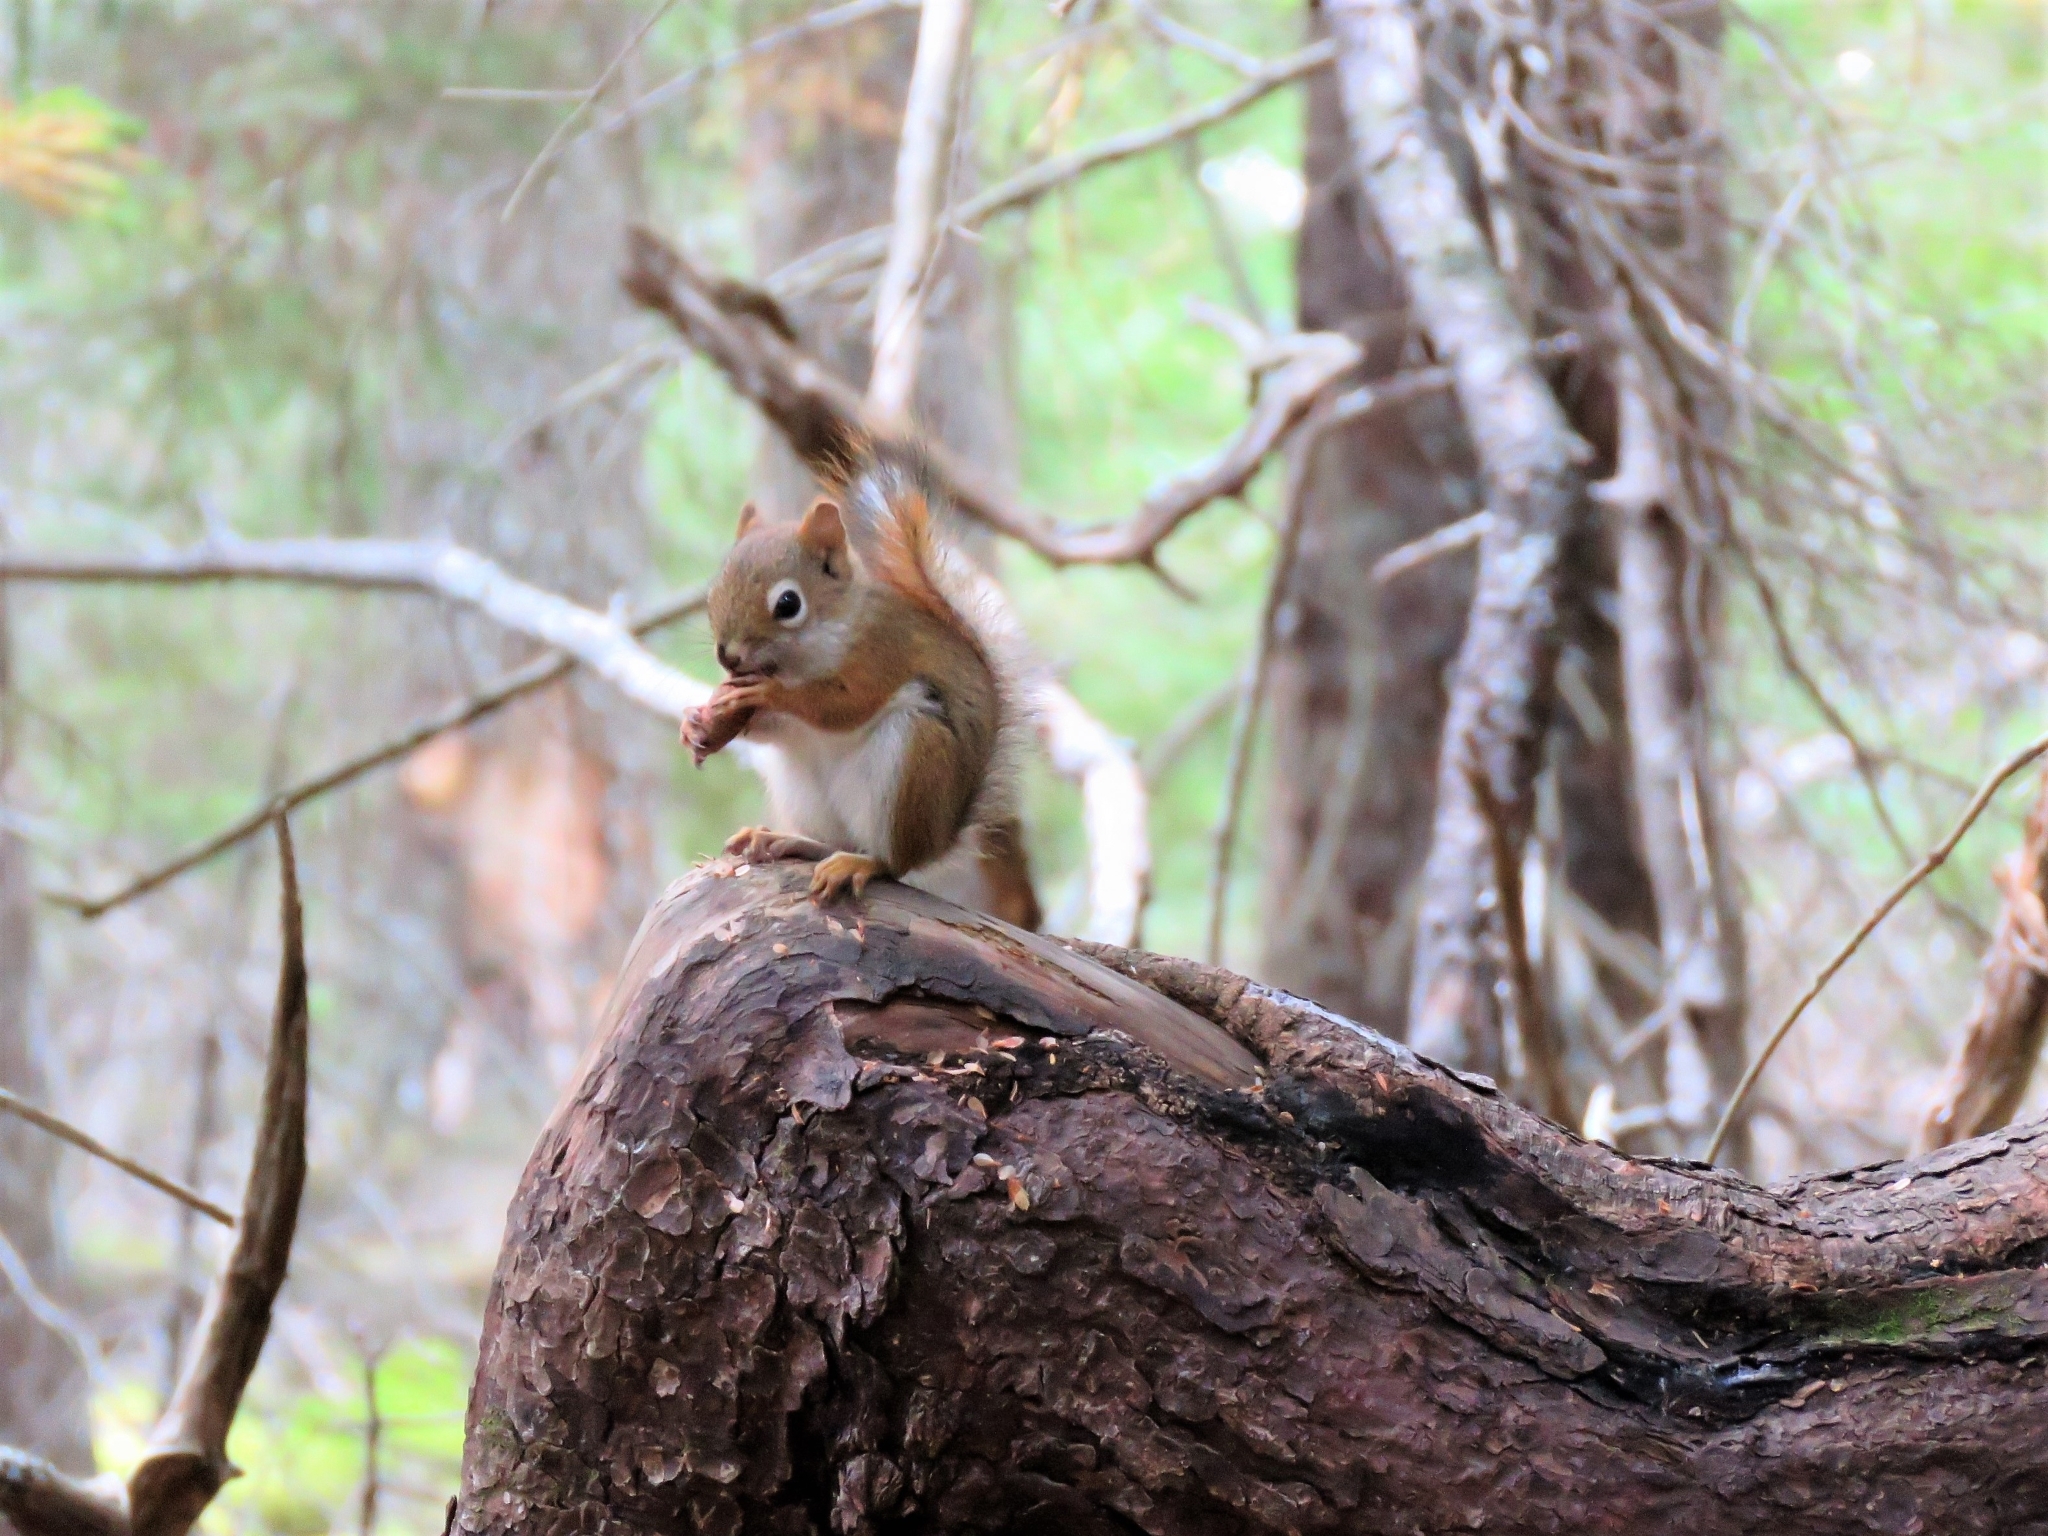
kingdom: Animalia
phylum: Chordata
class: Mammalia
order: Rodentia
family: Sciuridae
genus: Tamiasciurus
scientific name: Tamiasciurus hudsonicus
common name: Red squirrel
